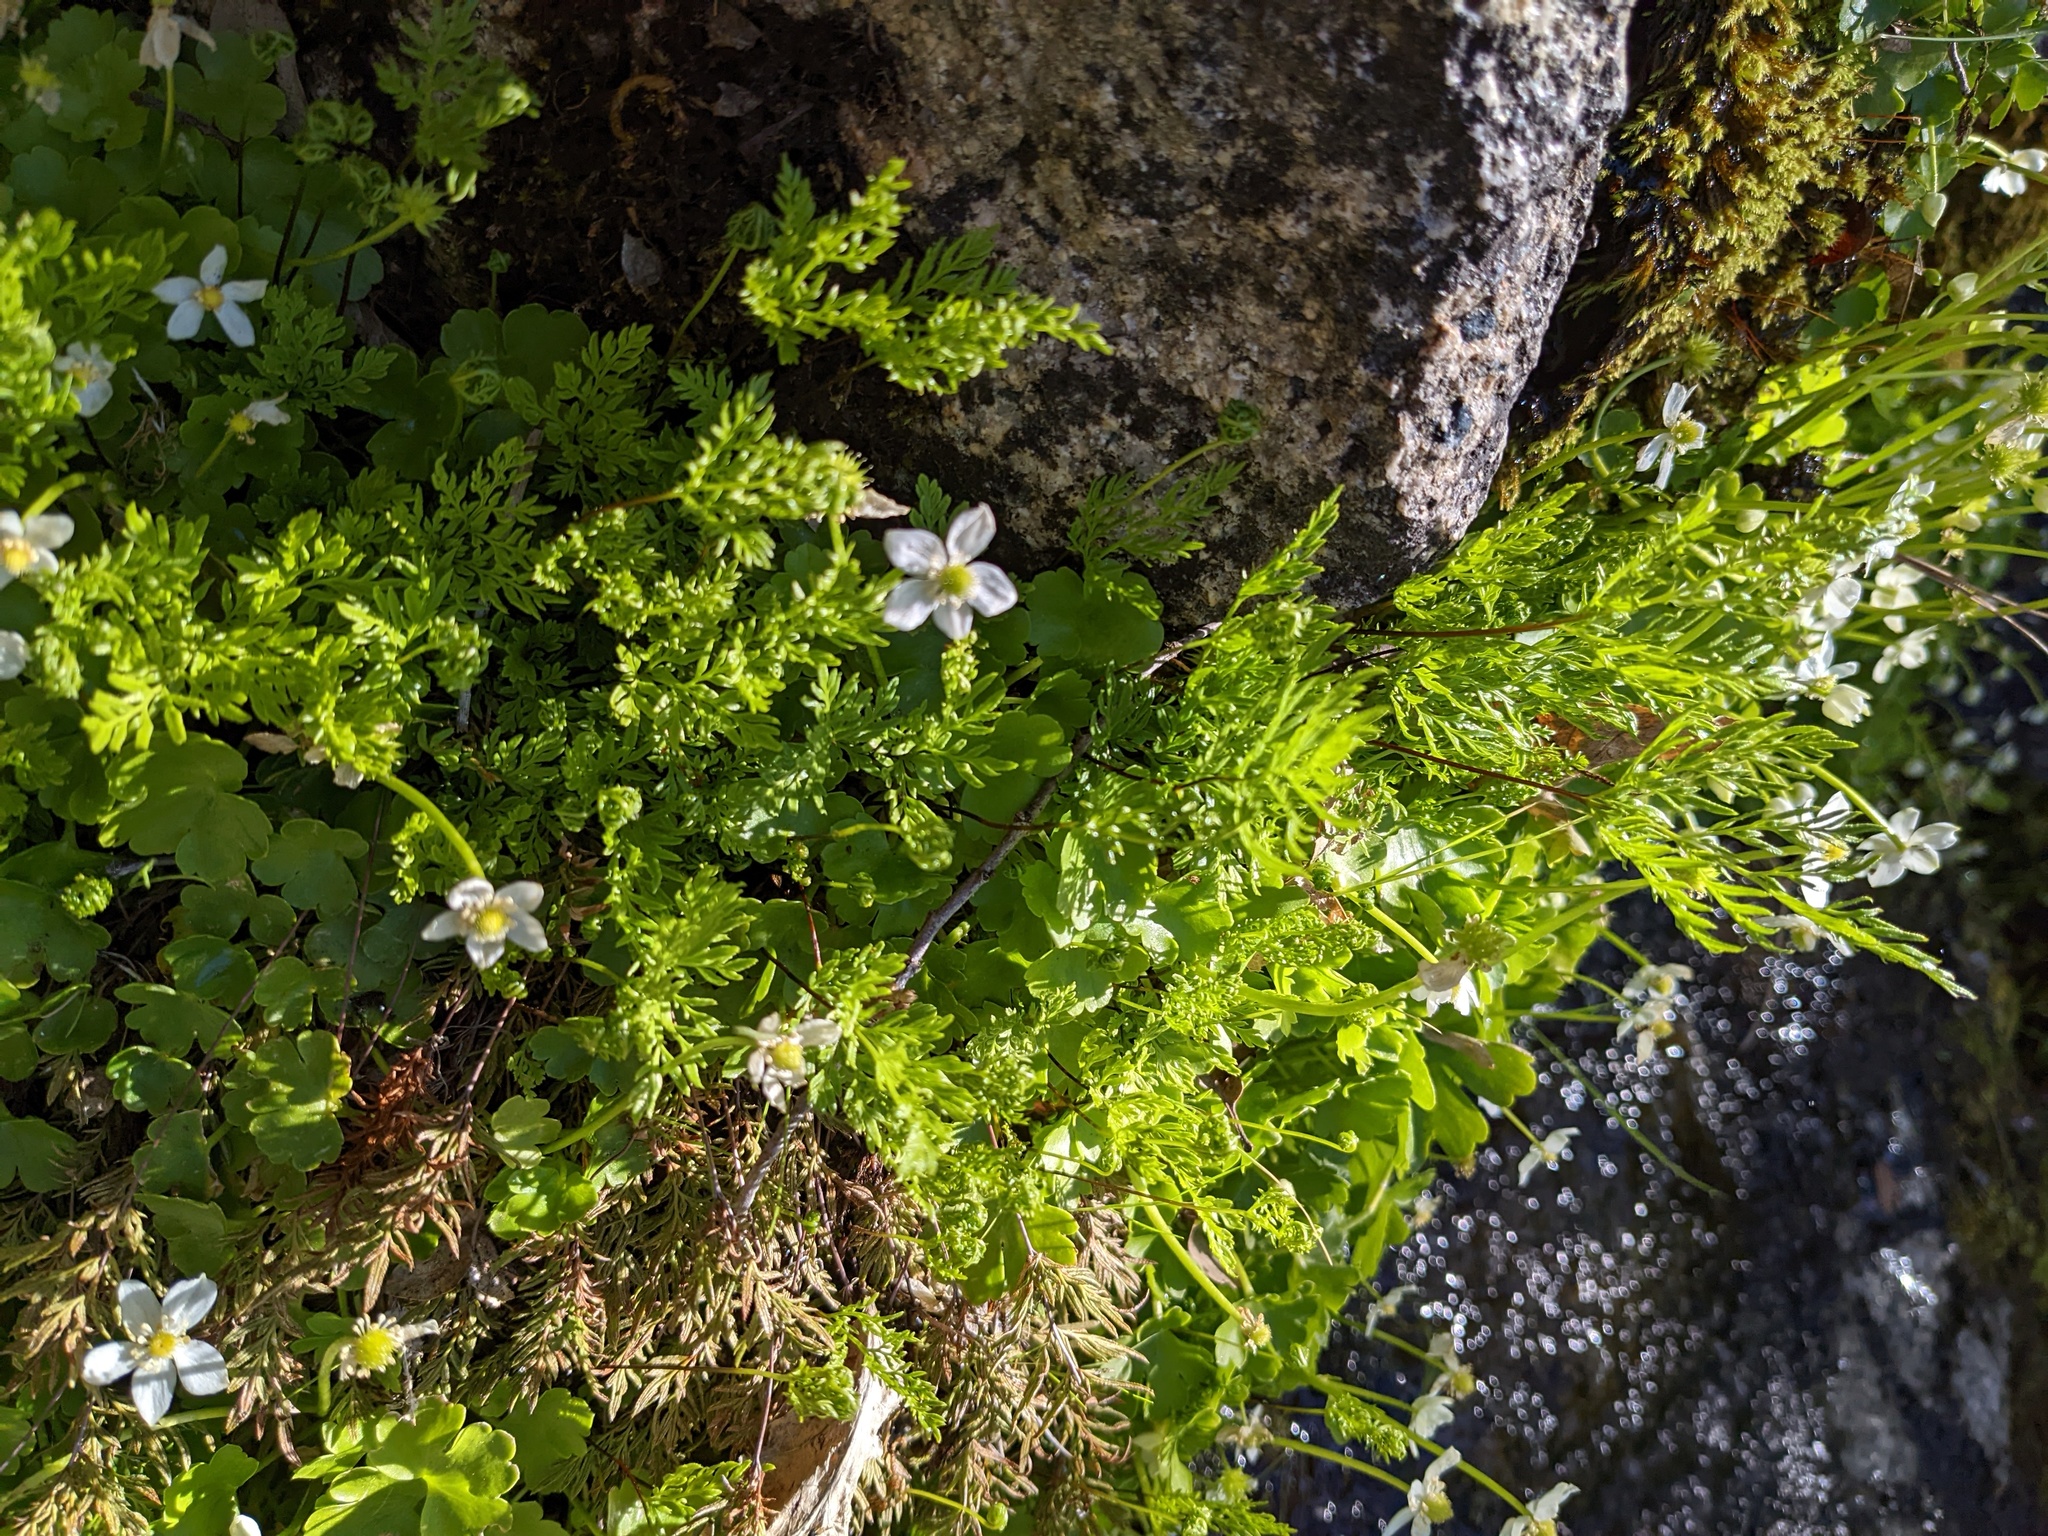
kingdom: Plantae
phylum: Tracheophyta
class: Magnoliopsida
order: Ranunculales
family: Ranunculaceae
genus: Kumlienia
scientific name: Kumlienia hystricula
